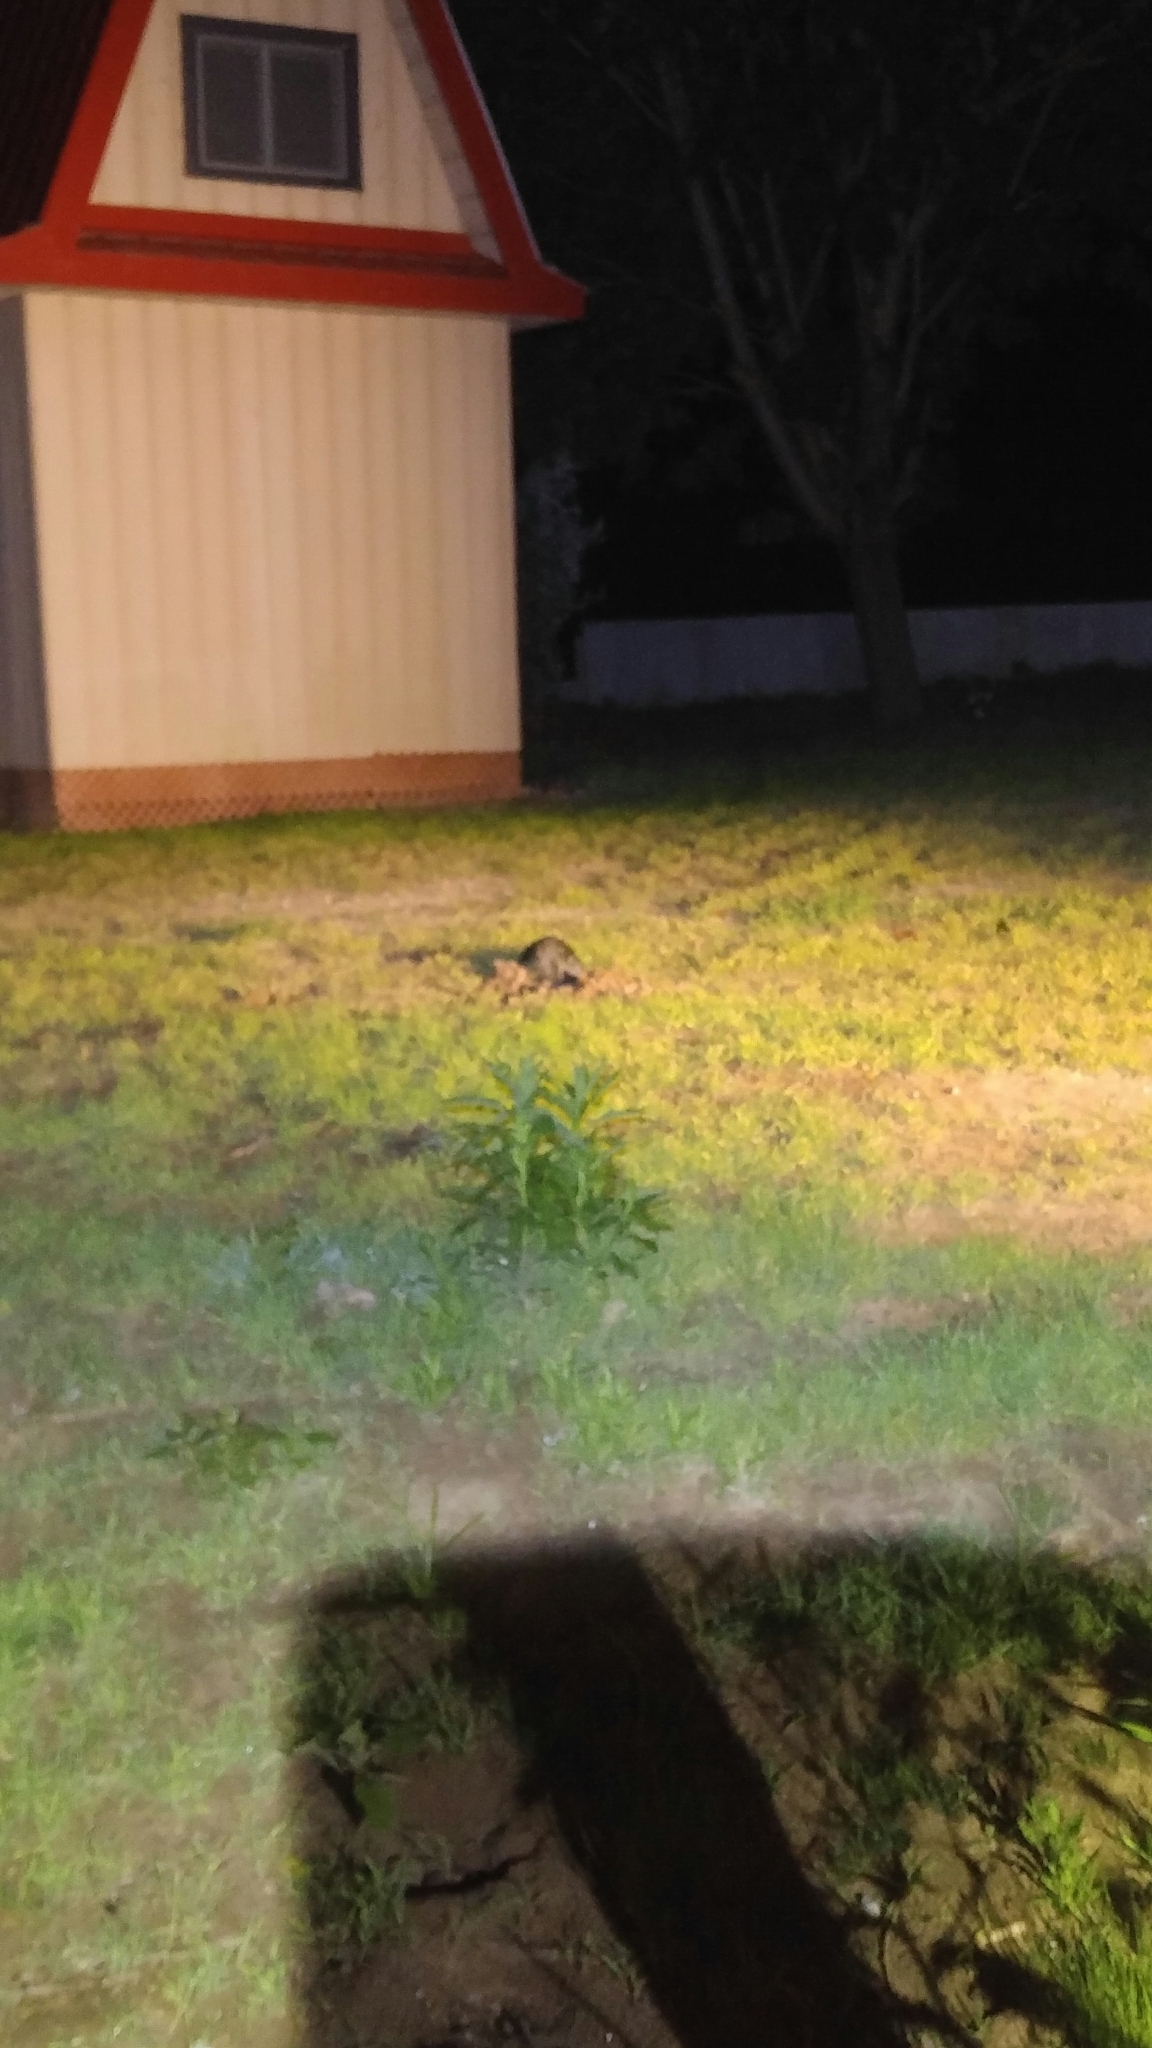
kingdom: Animalia
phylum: Chordata
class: Testudines
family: Chelydridae
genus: Chelydra
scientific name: Chelydra serpentina
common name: Common snapping turtle
